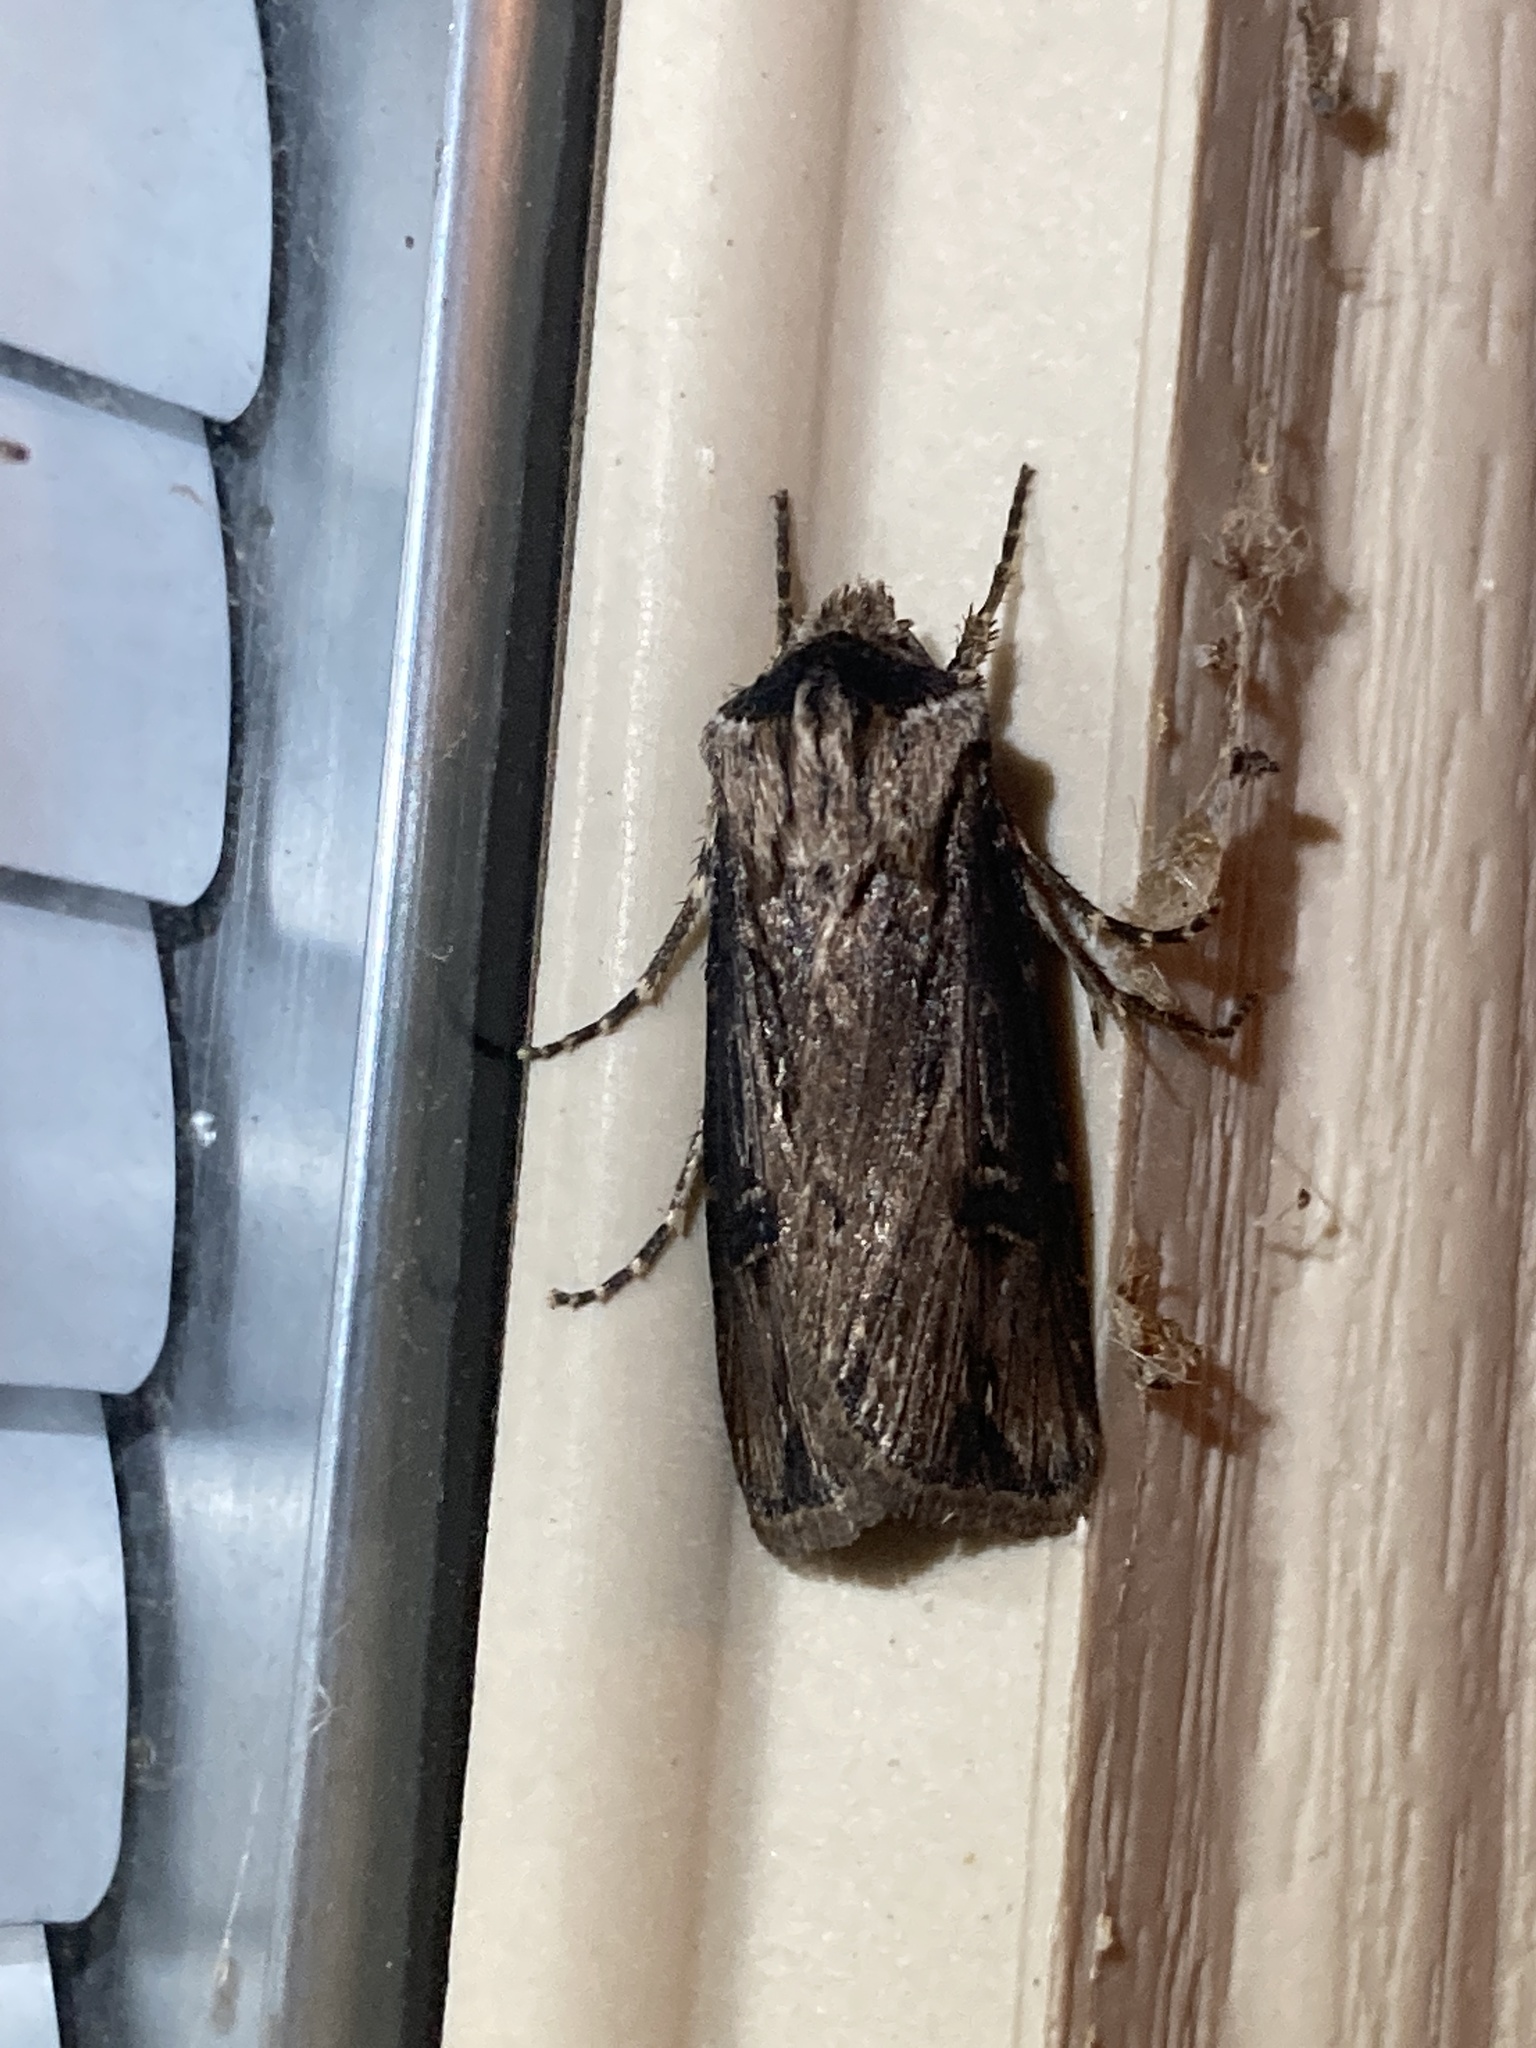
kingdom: Animalia
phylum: Arthropoda
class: Insecta
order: Lepidoptera
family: Noctuidae
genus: Agrotis
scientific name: Agrotis venerabilis
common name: Venerable dart
